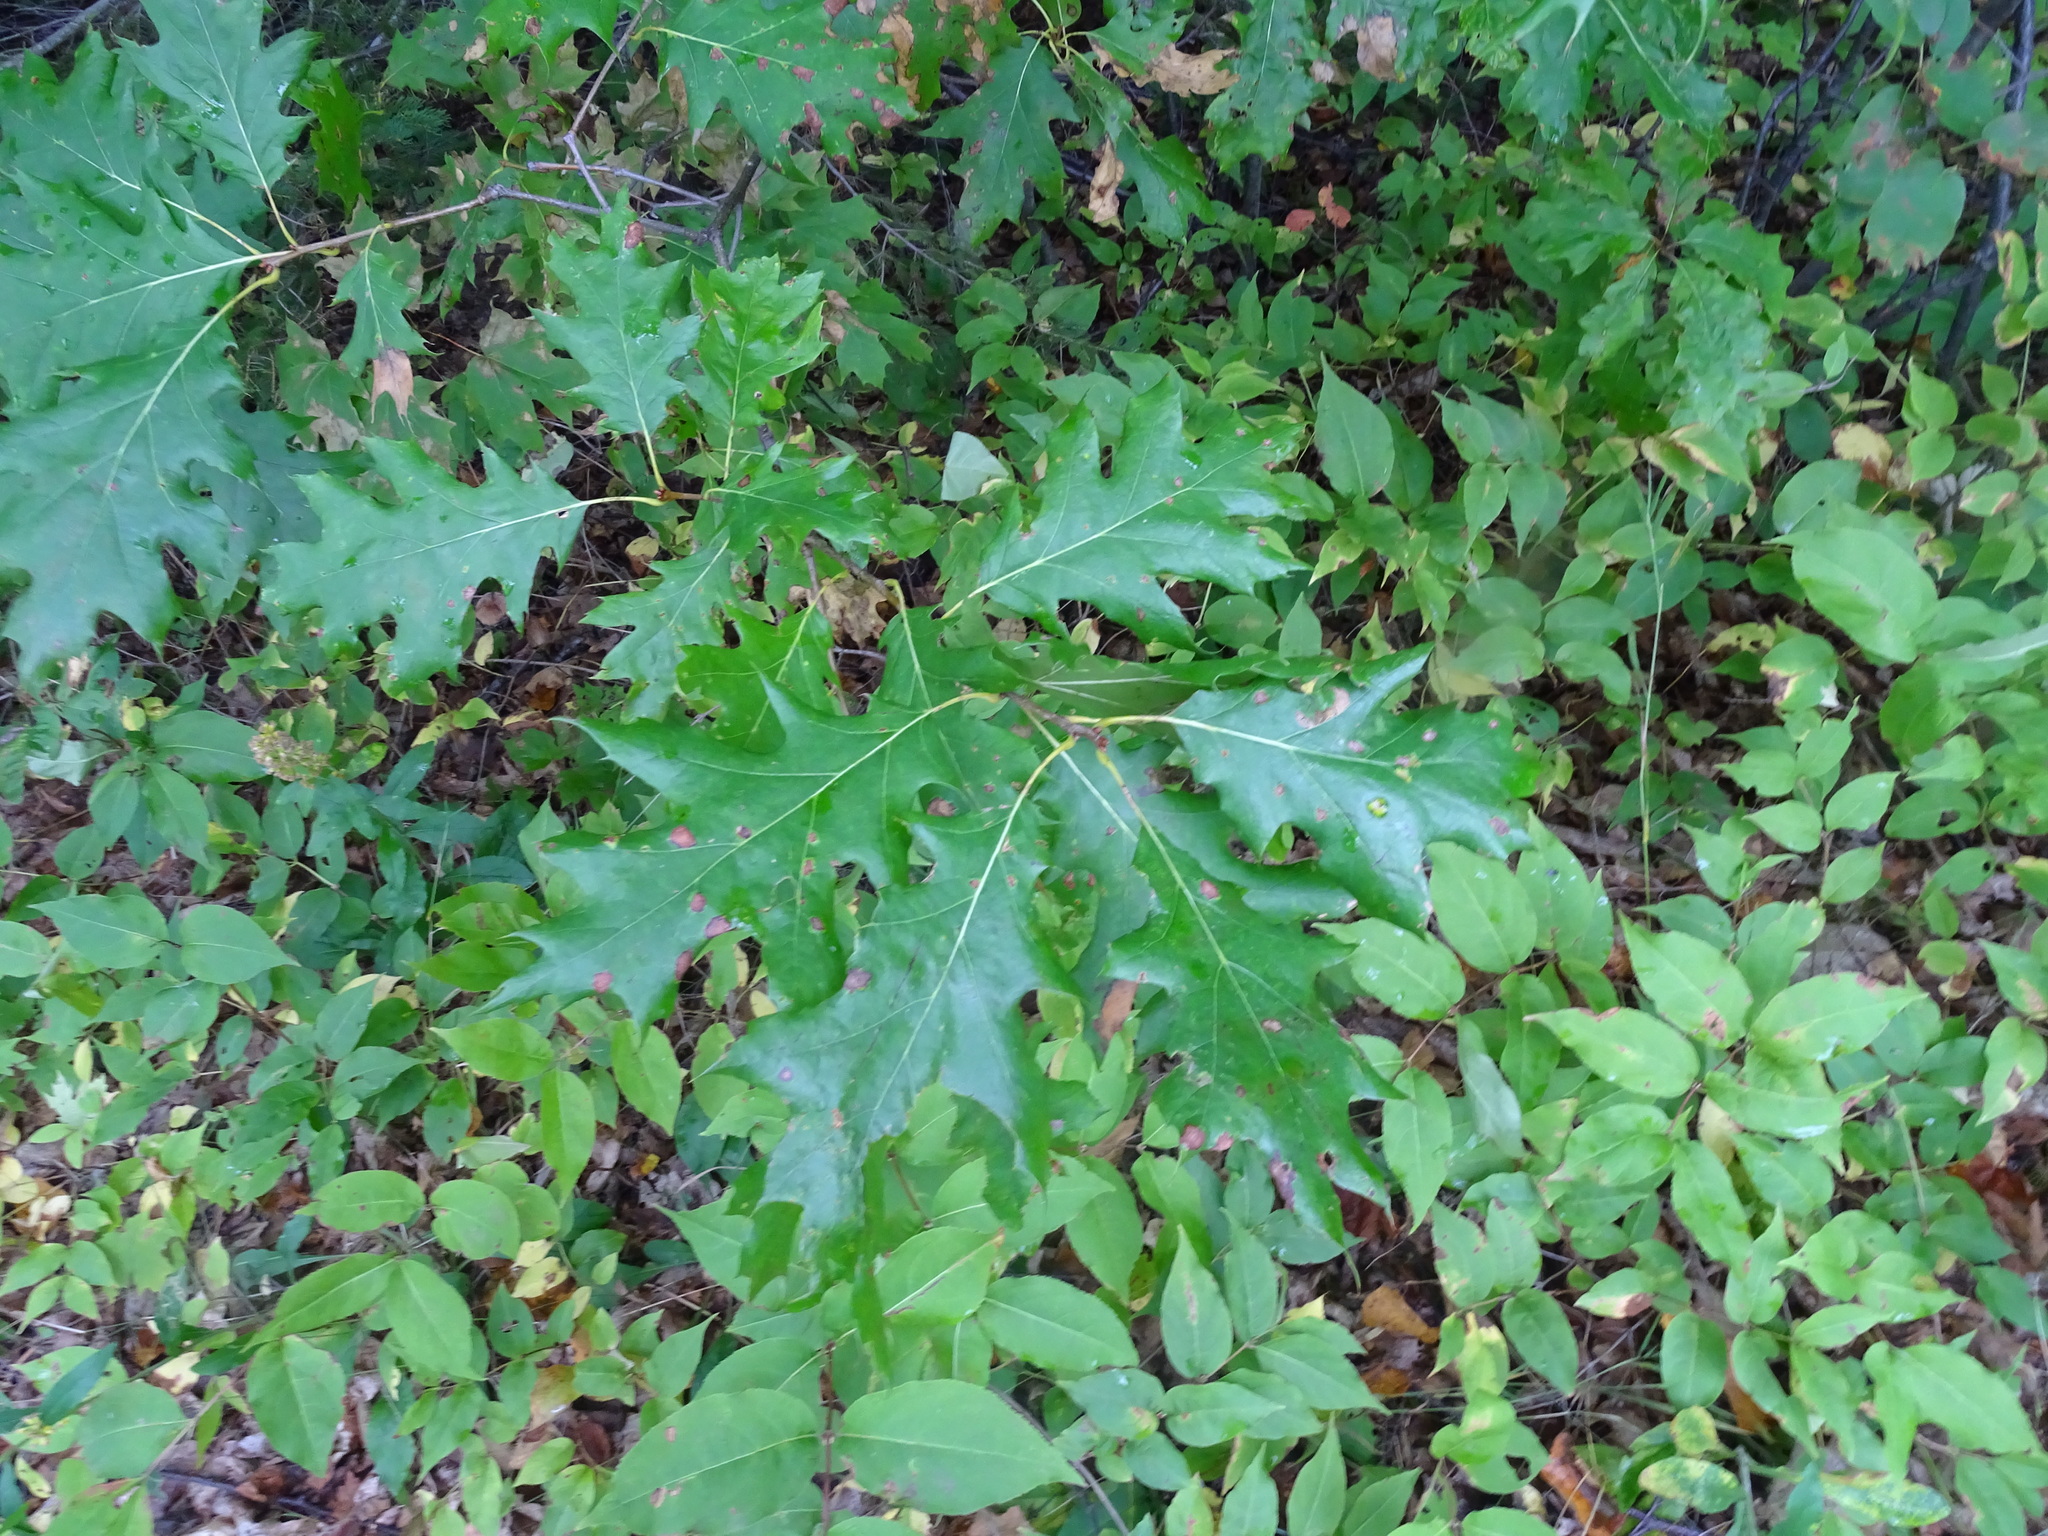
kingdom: Plantae
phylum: Tracheophyta
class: Magnoliopsida
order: Fagales
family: Fagaceae
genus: Quercus
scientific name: Quercus rubra
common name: Red oak
